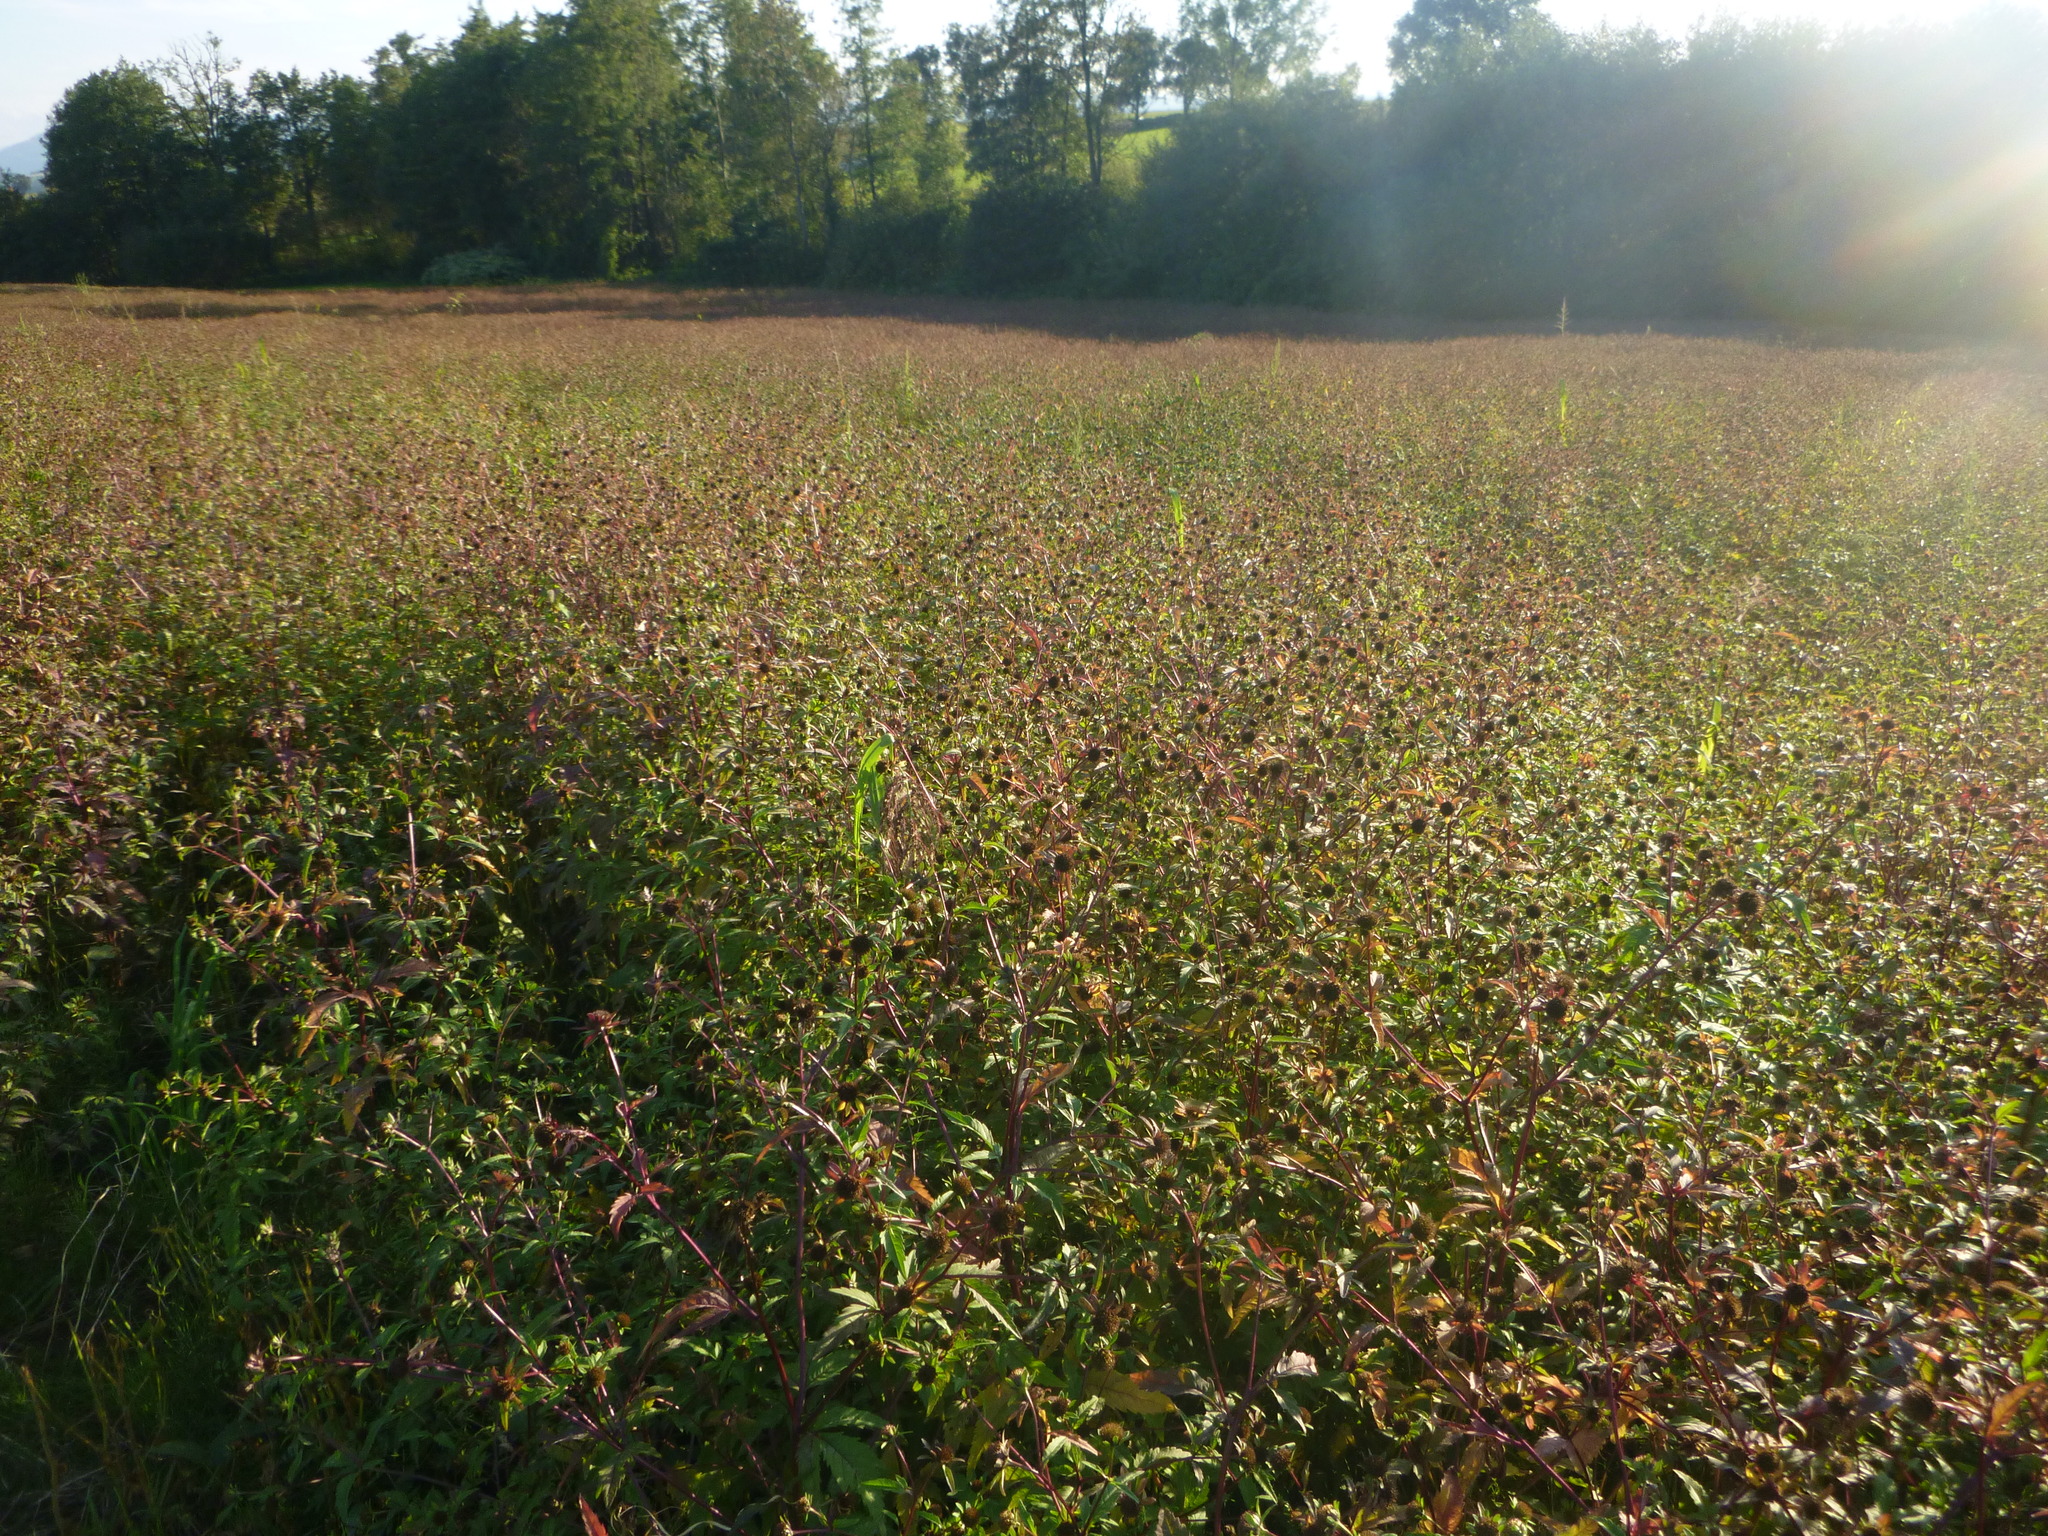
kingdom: Plantae
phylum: Tracheophyta
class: Magnoliopsida
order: Asterales
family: Asteraceae
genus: Bidens
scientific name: Bidens tripartita
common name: Trifid bur-marigold
